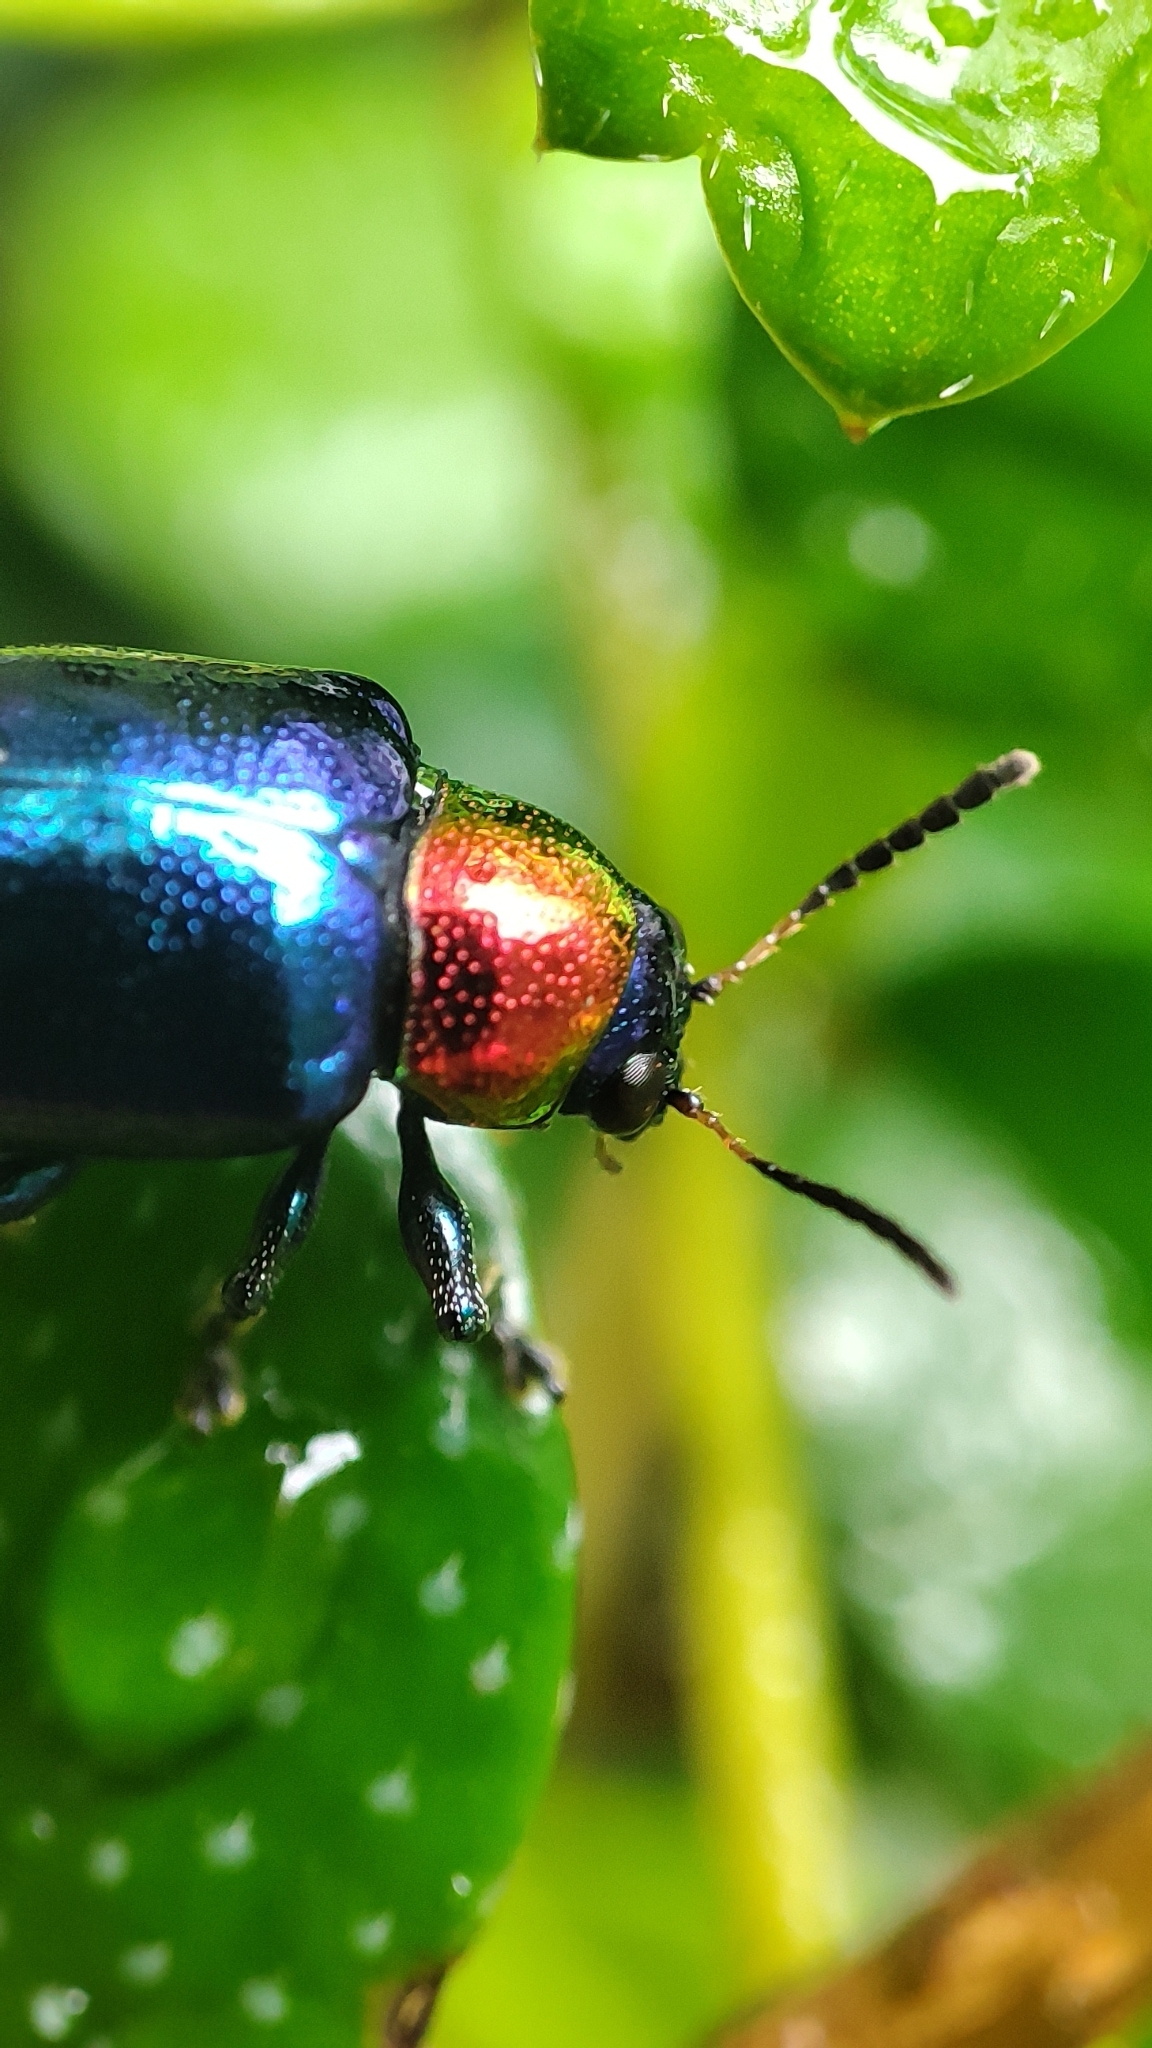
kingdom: Animalia
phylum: Arthropoda
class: Insecta
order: Coleoptera
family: Chrysomelidae
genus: Parheminodes
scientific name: Parheminodes
